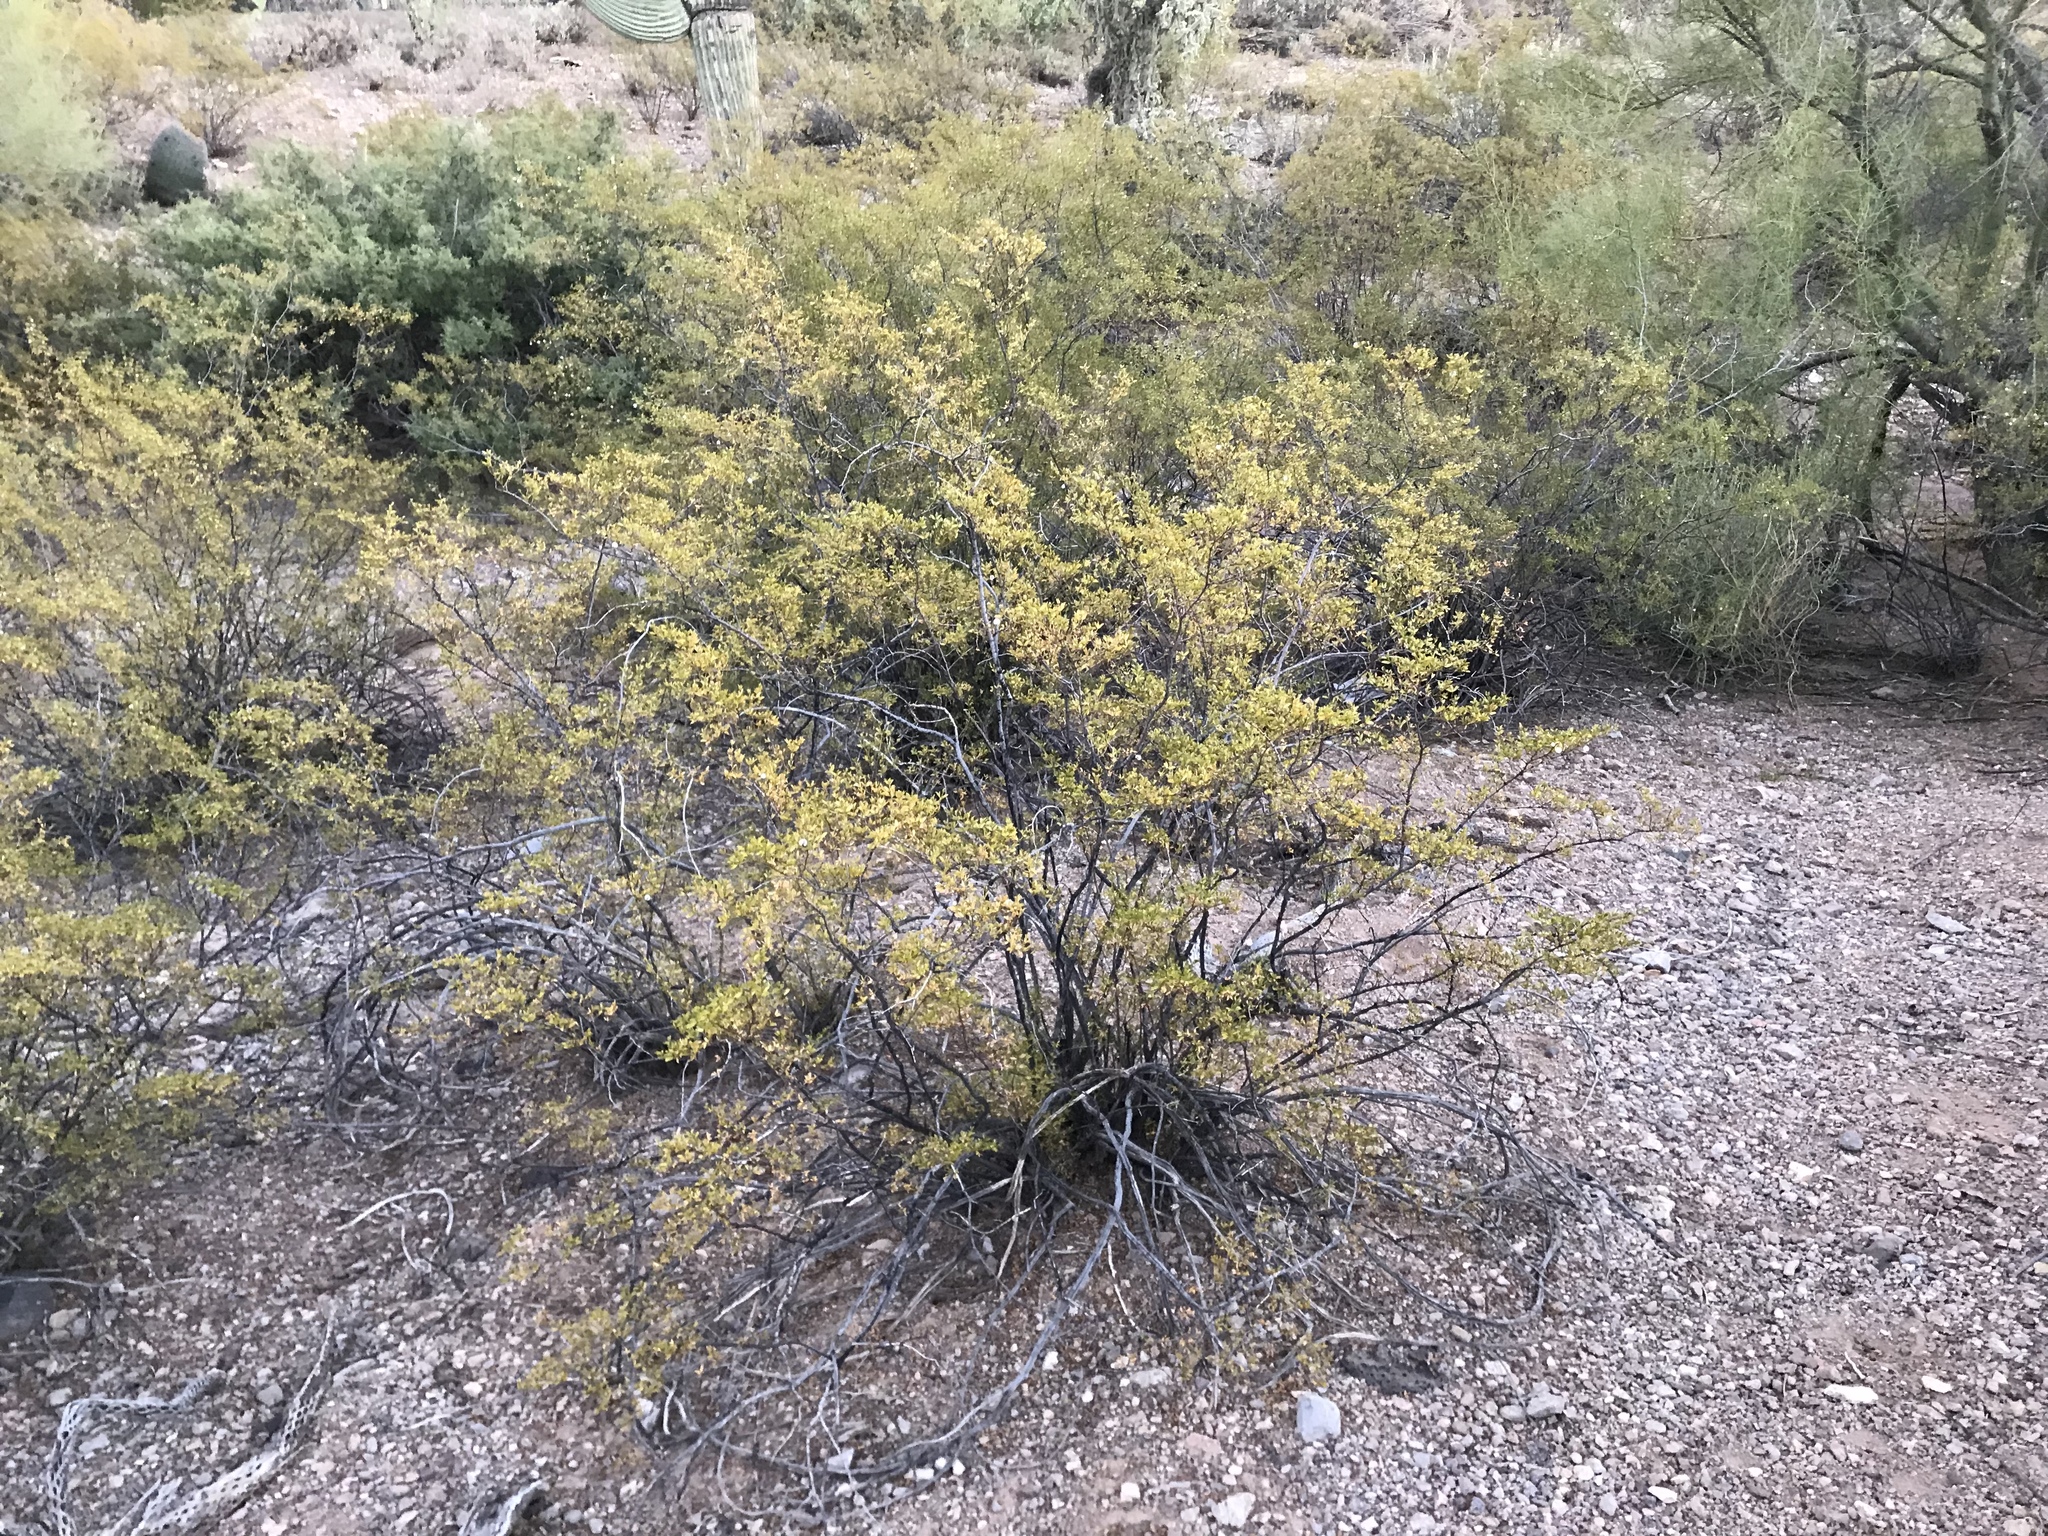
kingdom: Plantae
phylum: Tracheophyta
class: Magnoliopsida
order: Zygophyllales
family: Zygophyllaceae
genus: Larrea
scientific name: Larrea tridentata
